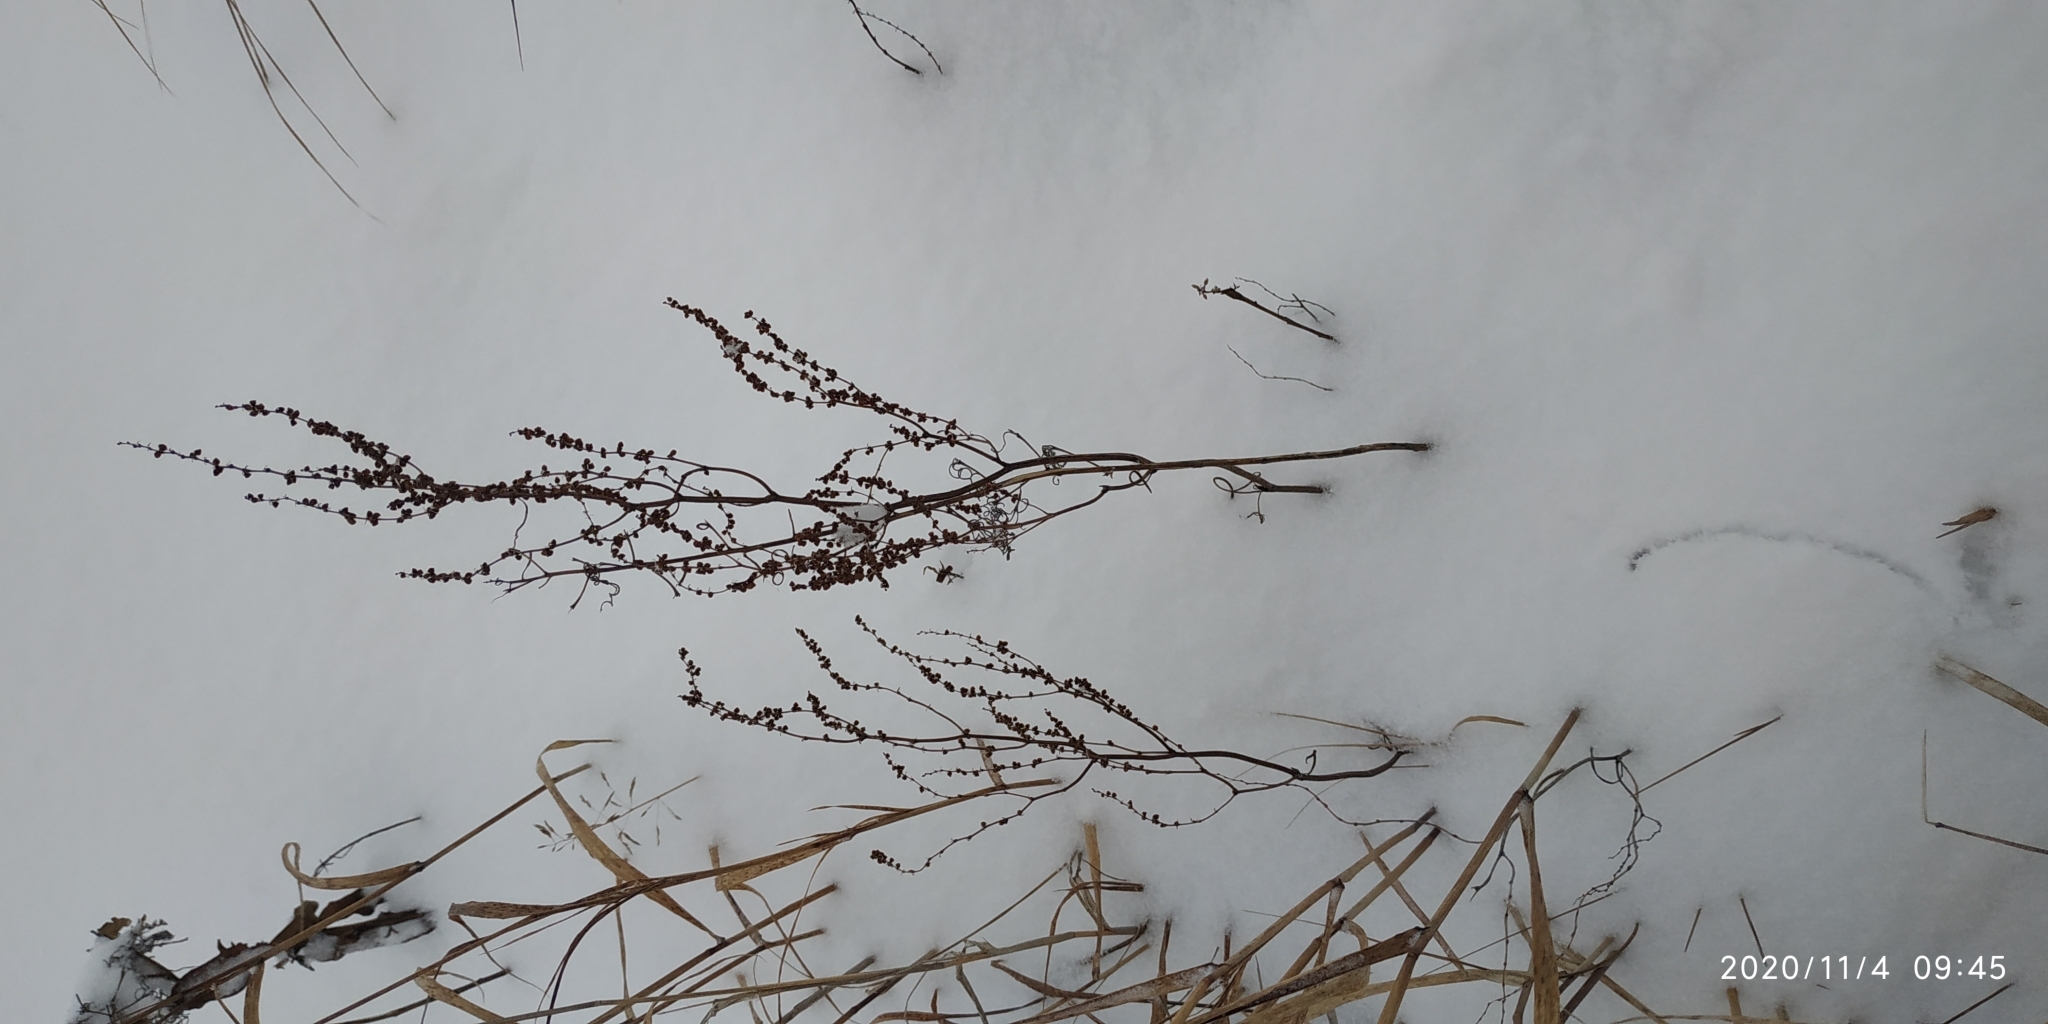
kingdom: Plantae
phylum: Tracheophyta
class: Magnoliopsida
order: Caryophyllales
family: Polygonaceae
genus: Rumex
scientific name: Rumex acetosella
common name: Common sheep sorrel
